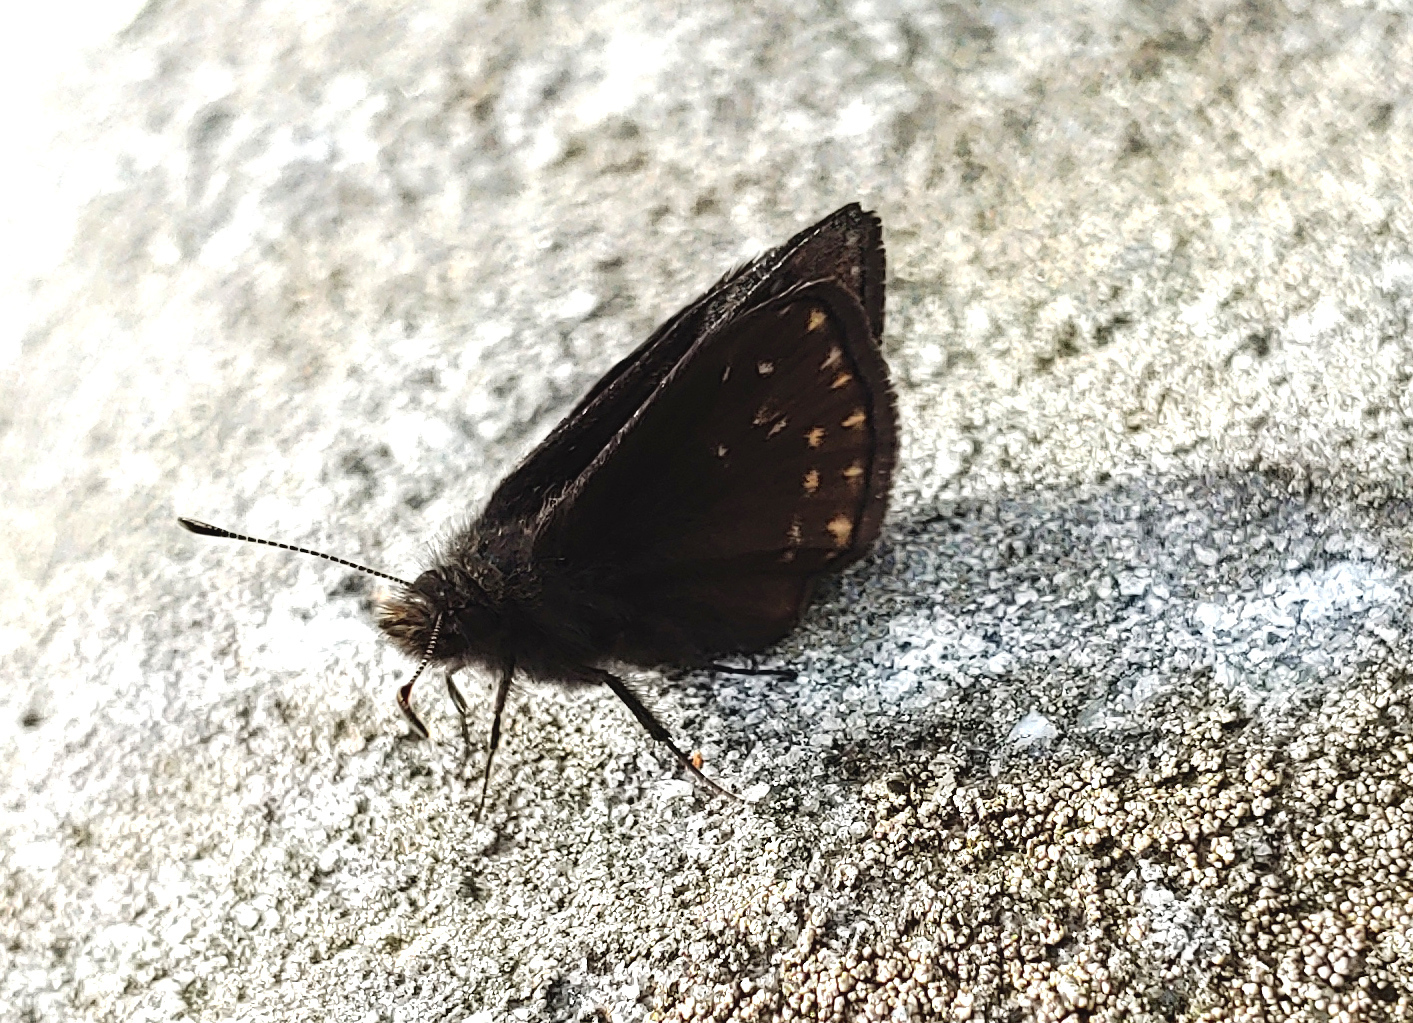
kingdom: Animalia
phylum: Arthropoda
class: Insecta
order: Lepidoptera
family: Hesperiidae
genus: Erynnis
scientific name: Erynnis brizo
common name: Sleepy duskywing
